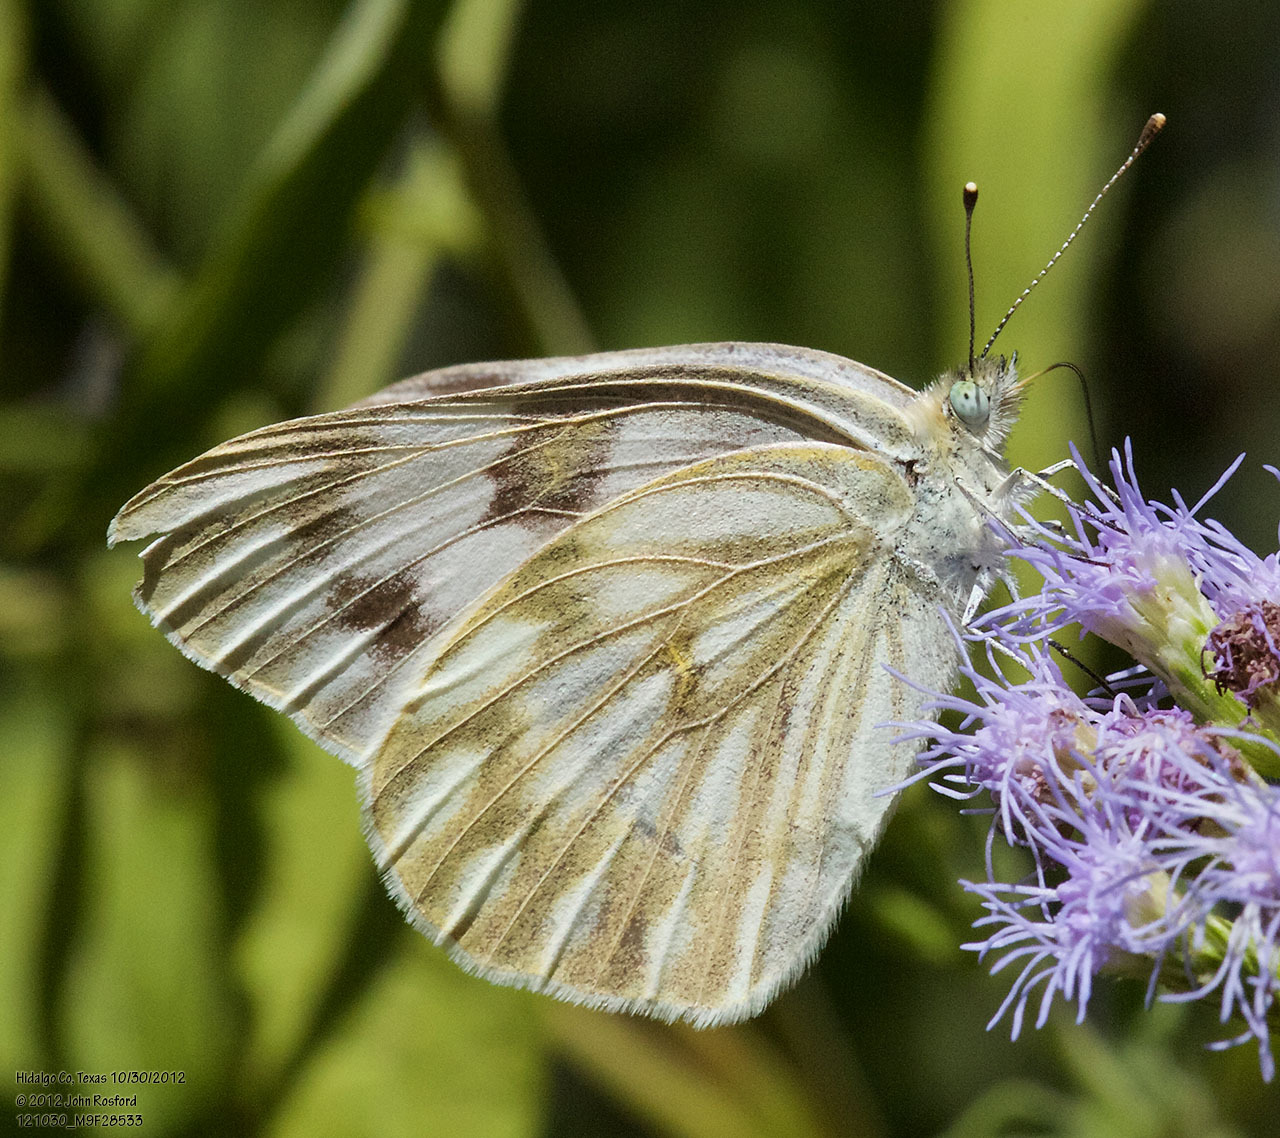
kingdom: Animalia
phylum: Arthropoda
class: Insecta
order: Lepidoptera
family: Pieridae
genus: Pontia
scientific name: Pontia protodice
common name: Checkered white
